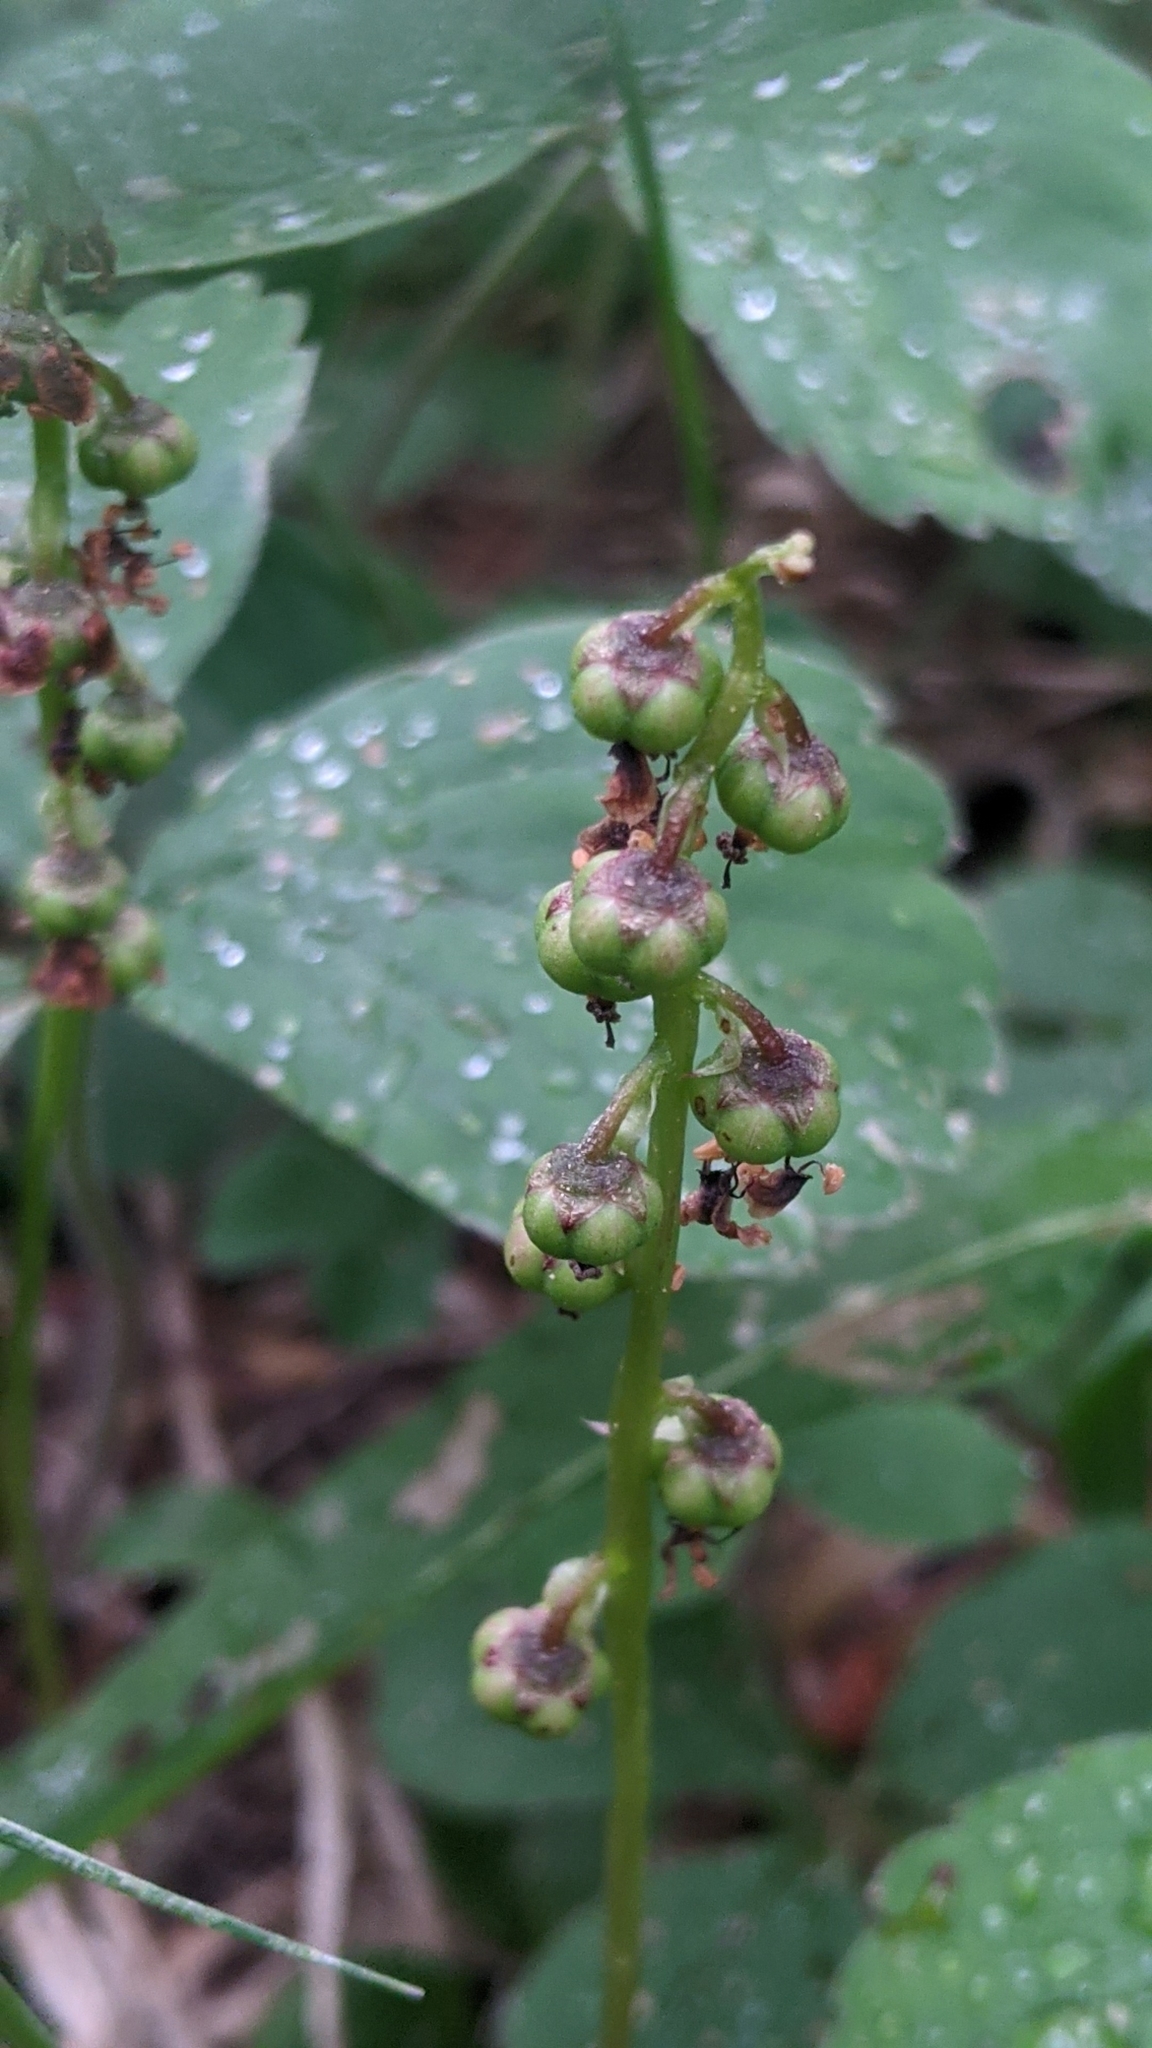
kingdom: Plantae
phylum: Tracheophyta
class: Magnoliopsida
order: Ericales
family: Ericaceae
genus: Pyrola
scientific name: Pyrola minor
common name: Common wintergreen
